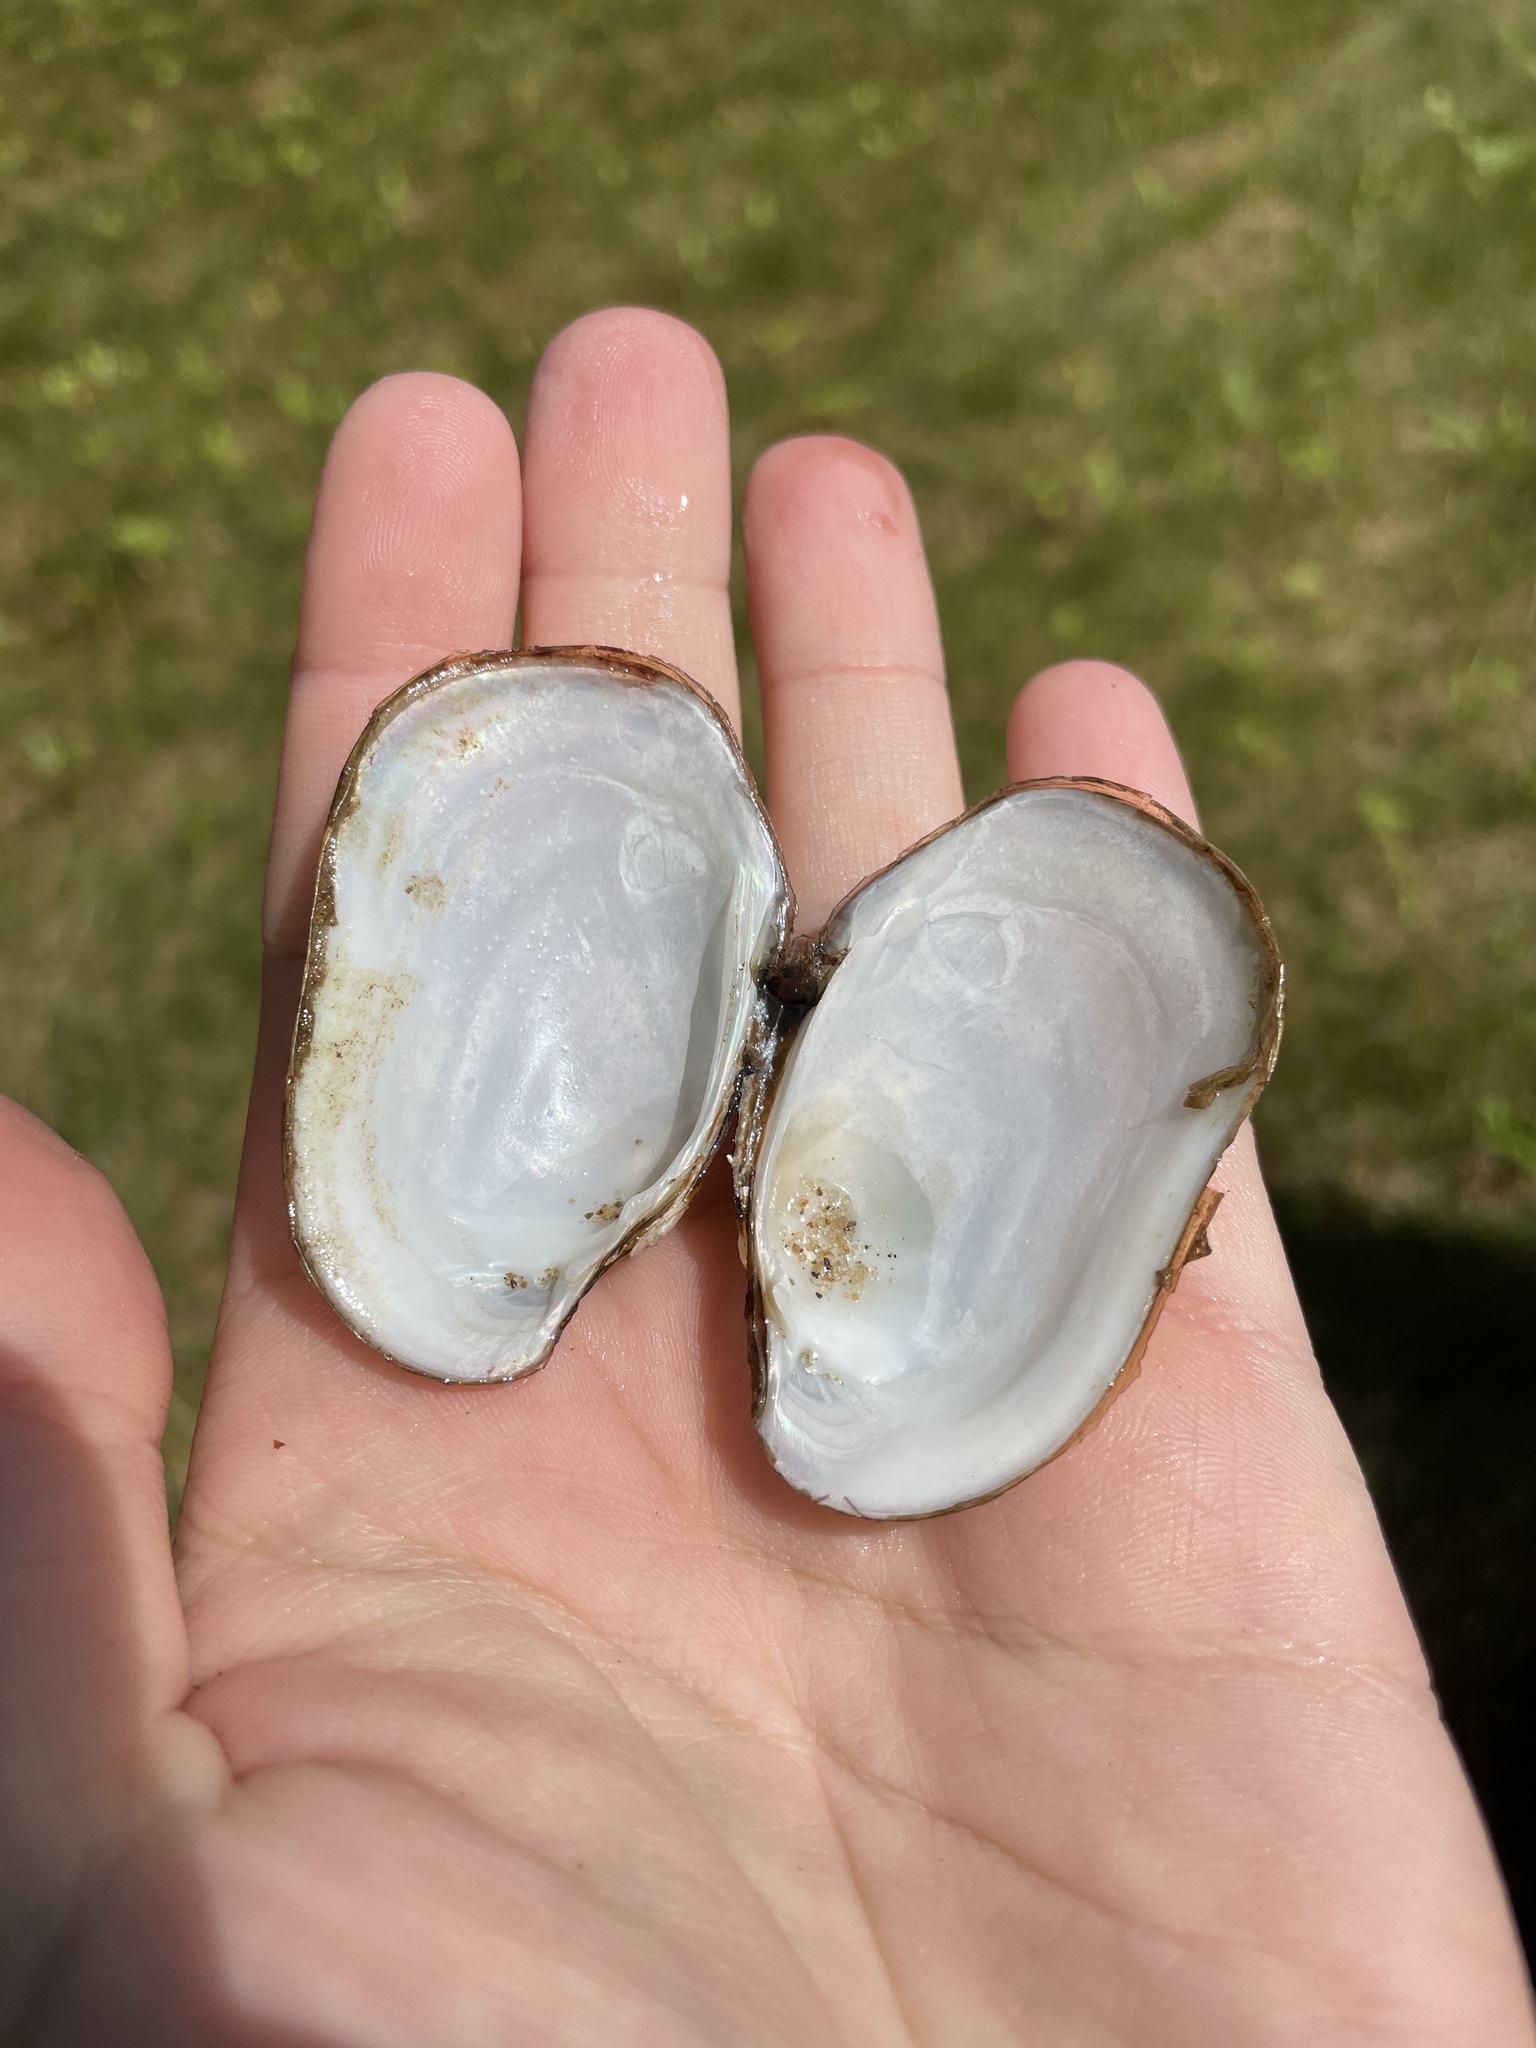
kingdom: Animalia
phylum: Mollusca
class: Bivalvia
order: Unionida
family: Unionidae
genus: Lampsilis
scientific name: Lampsilis siliquoidea
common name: Fatmucket
